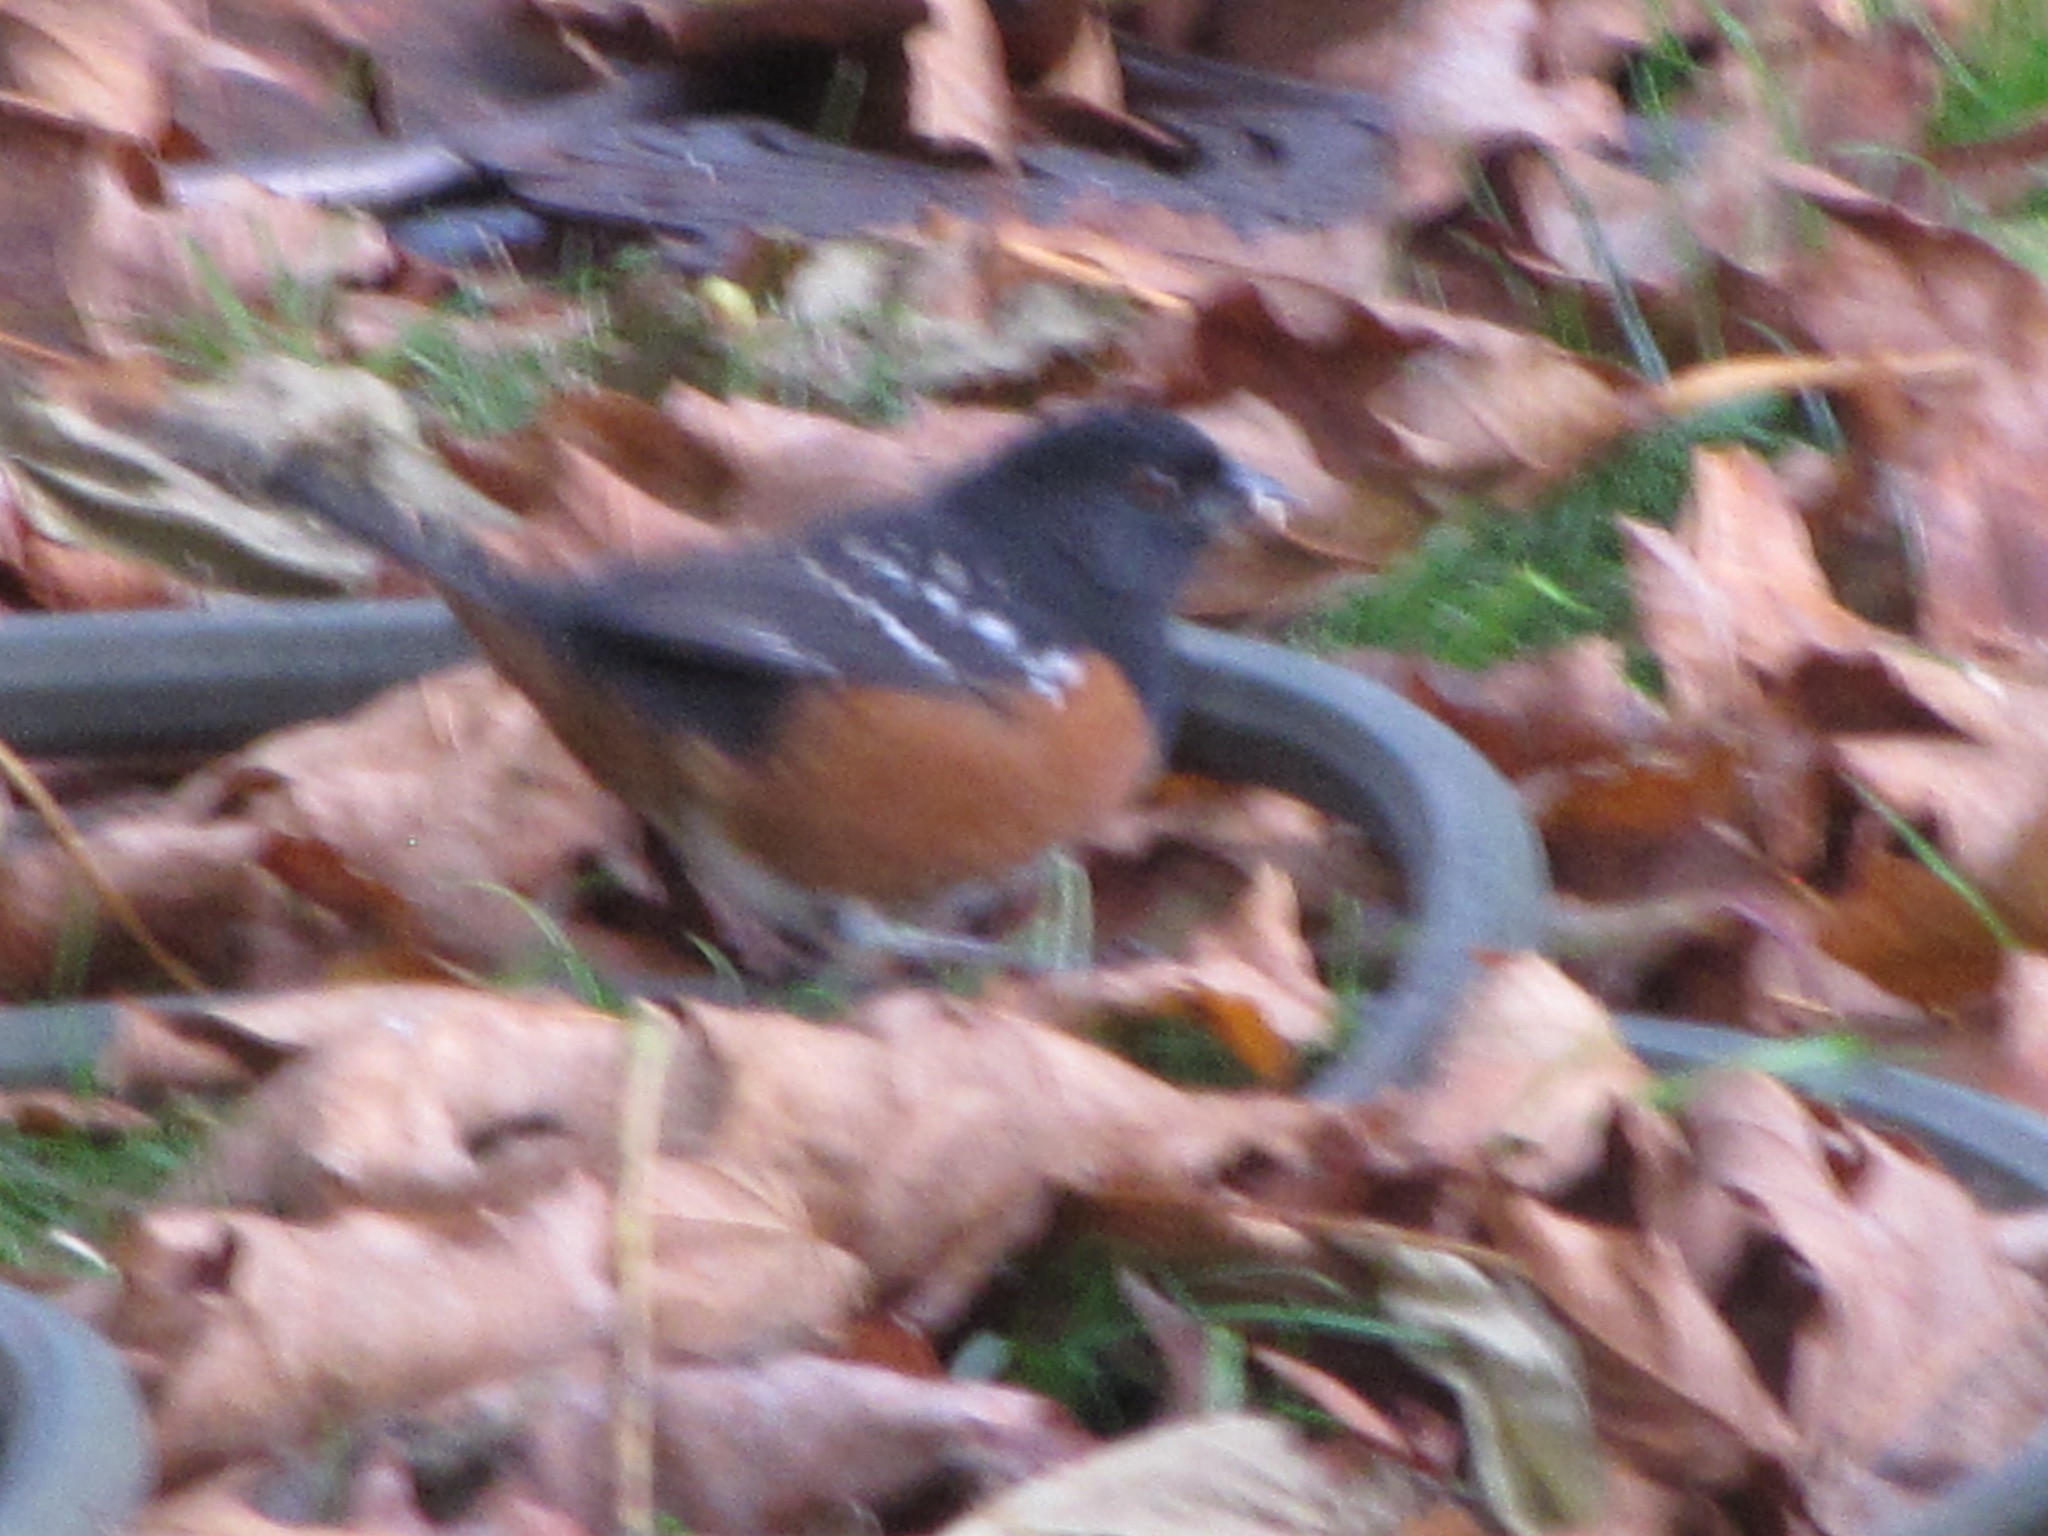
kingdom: Animalia
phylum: Chordata
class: Aves
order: Passeriformes
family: Passerellidae
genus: Pipilo
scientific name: Pipilo maculatus
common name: Spotted towhee
